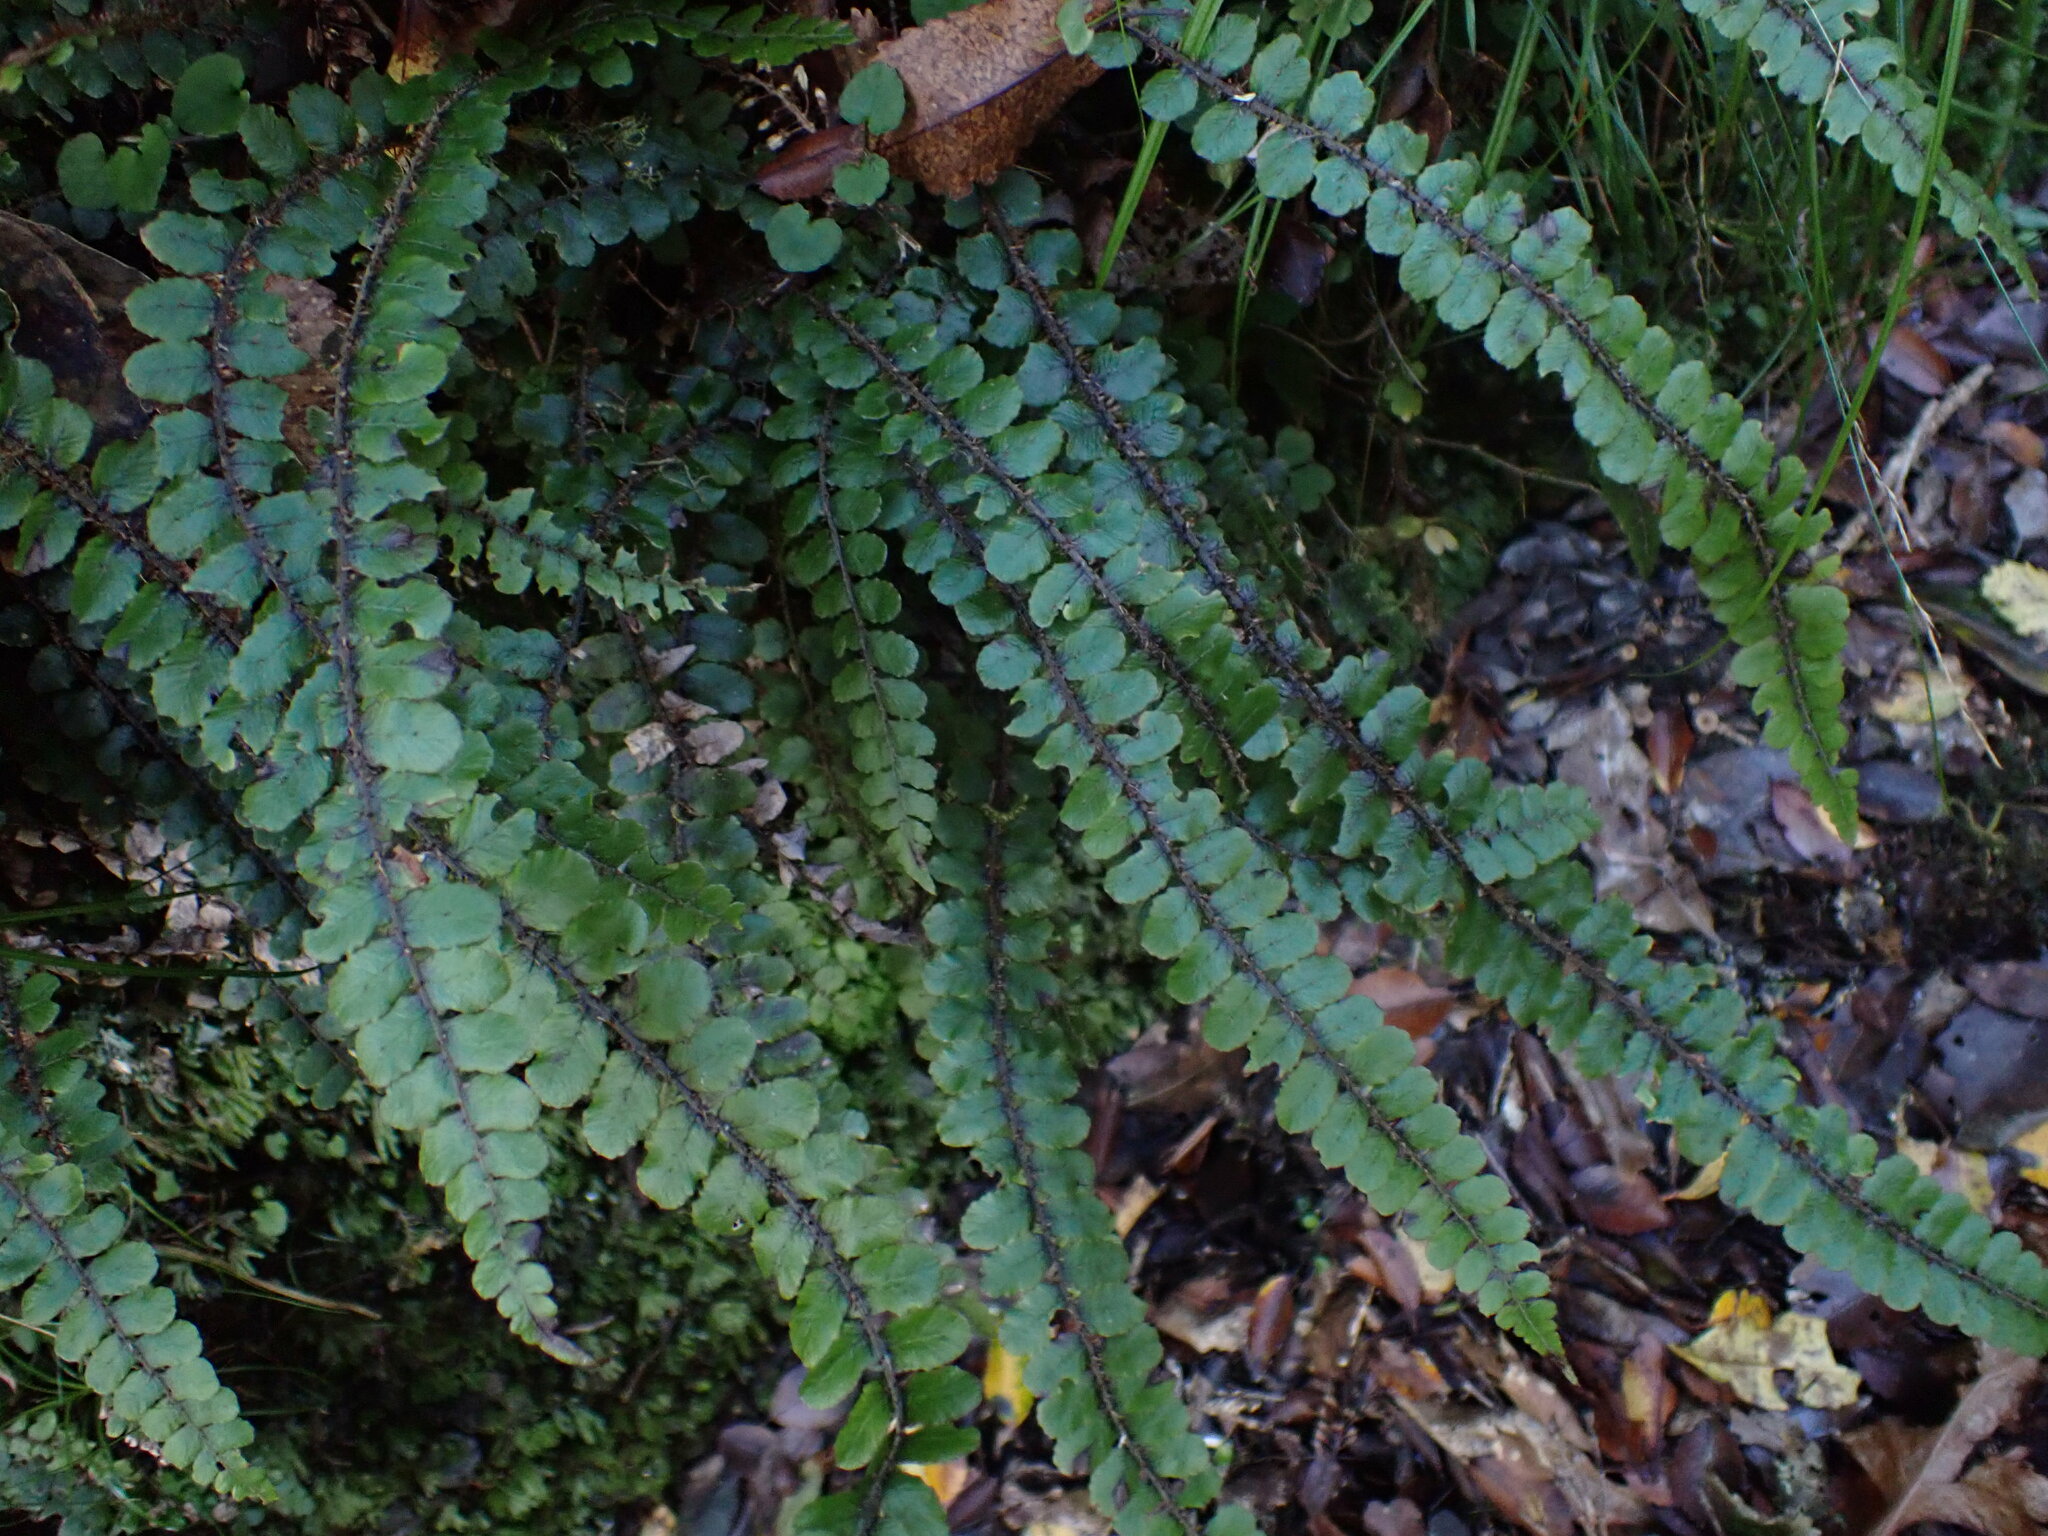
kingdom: Plantae
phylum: Tracheophyta
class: Polypodiopsida
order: Polypodiales
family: Blechnaceae
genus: Cranfillia
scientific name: Cranfillia fluviatilis
